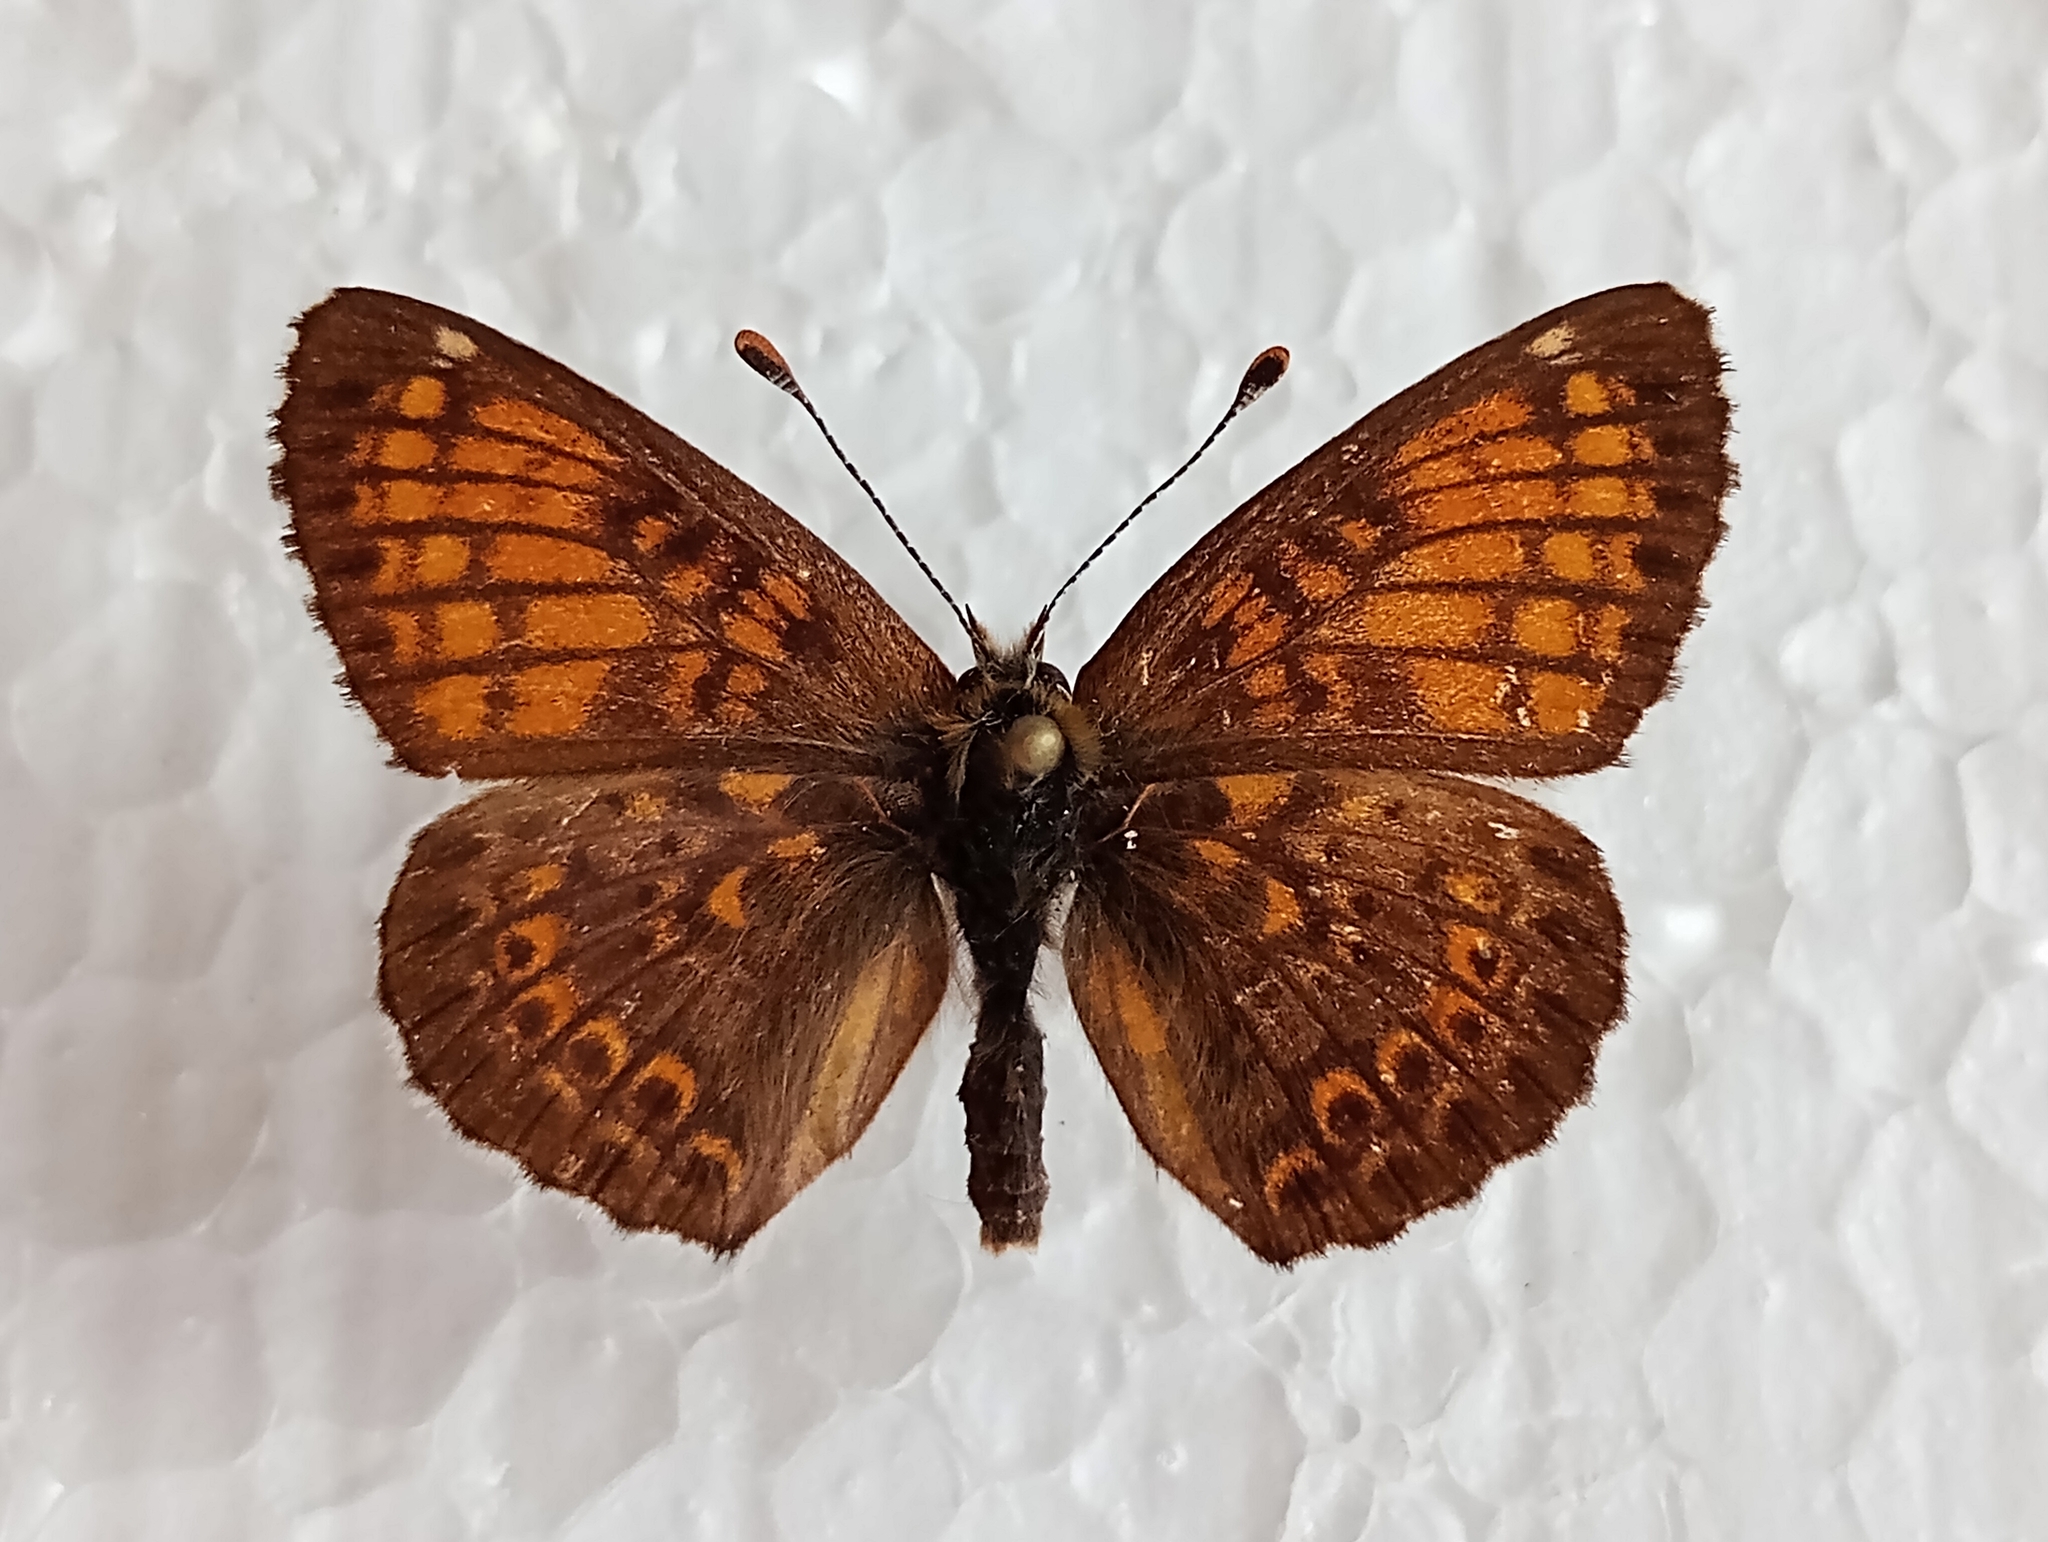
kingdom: Animalia
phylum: Arthropoda
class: Insecta
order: Lepidoptera
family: Nymphalidae
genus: Melitaea
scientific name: Melitaea cinxia
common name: Glanville fritillary
